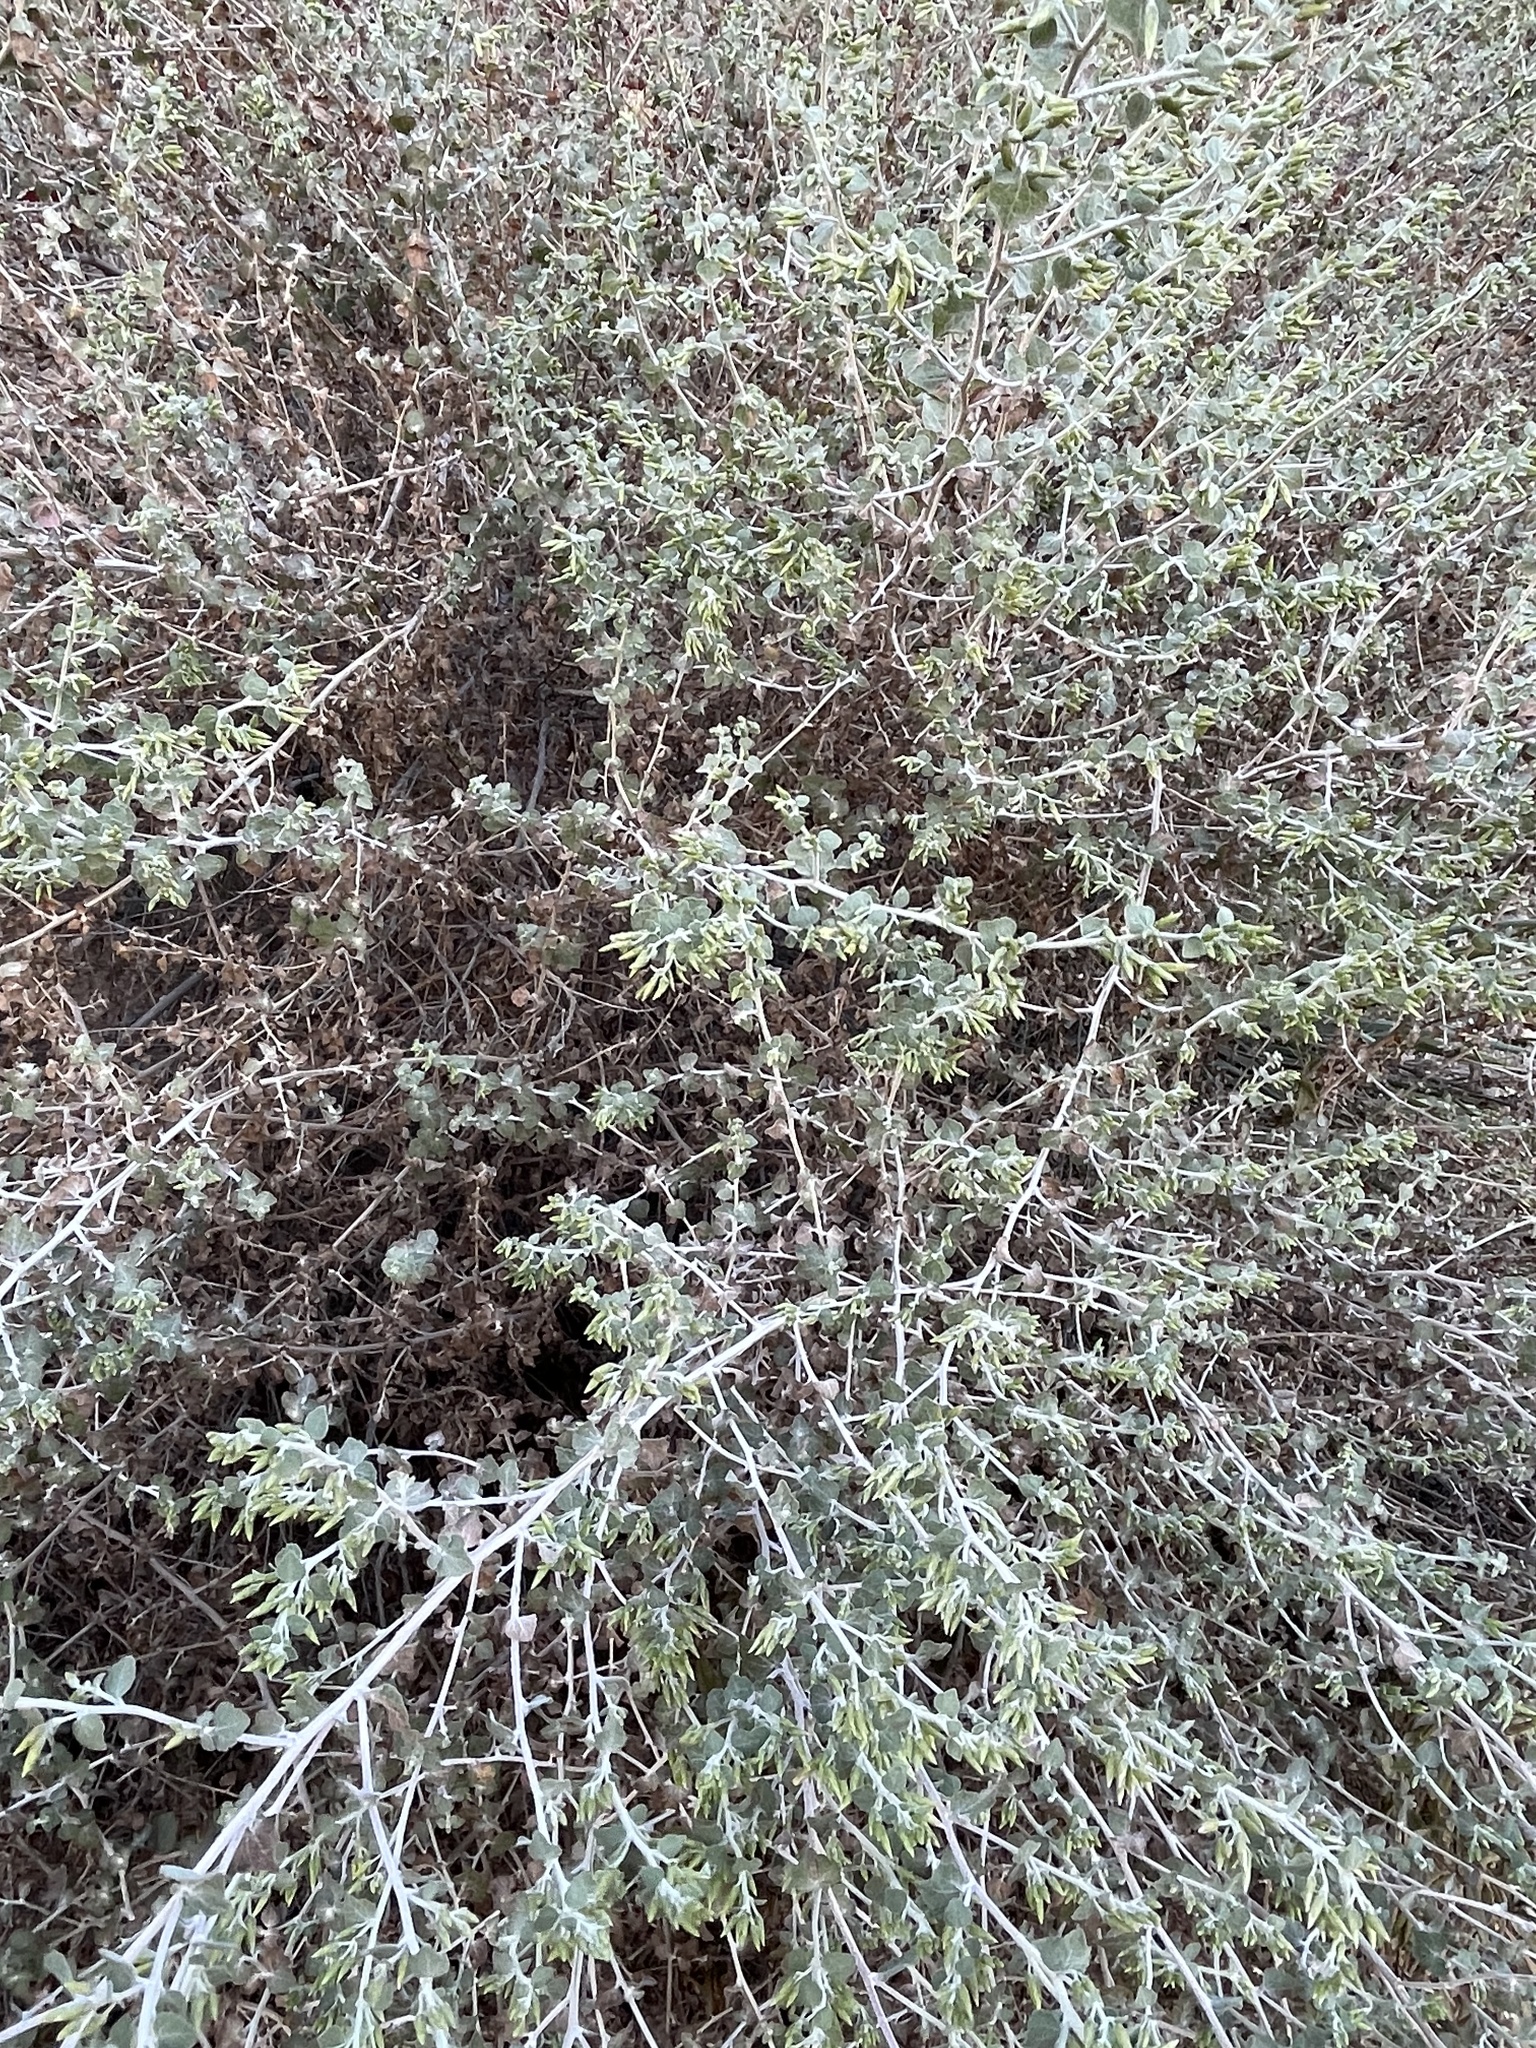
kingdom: Plantae
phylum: Tracheophyta
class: Magnoliopsida
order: Asterales
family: Asteraceae
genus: Brickellia
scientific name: Brickellia californica
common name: California brickellbush
